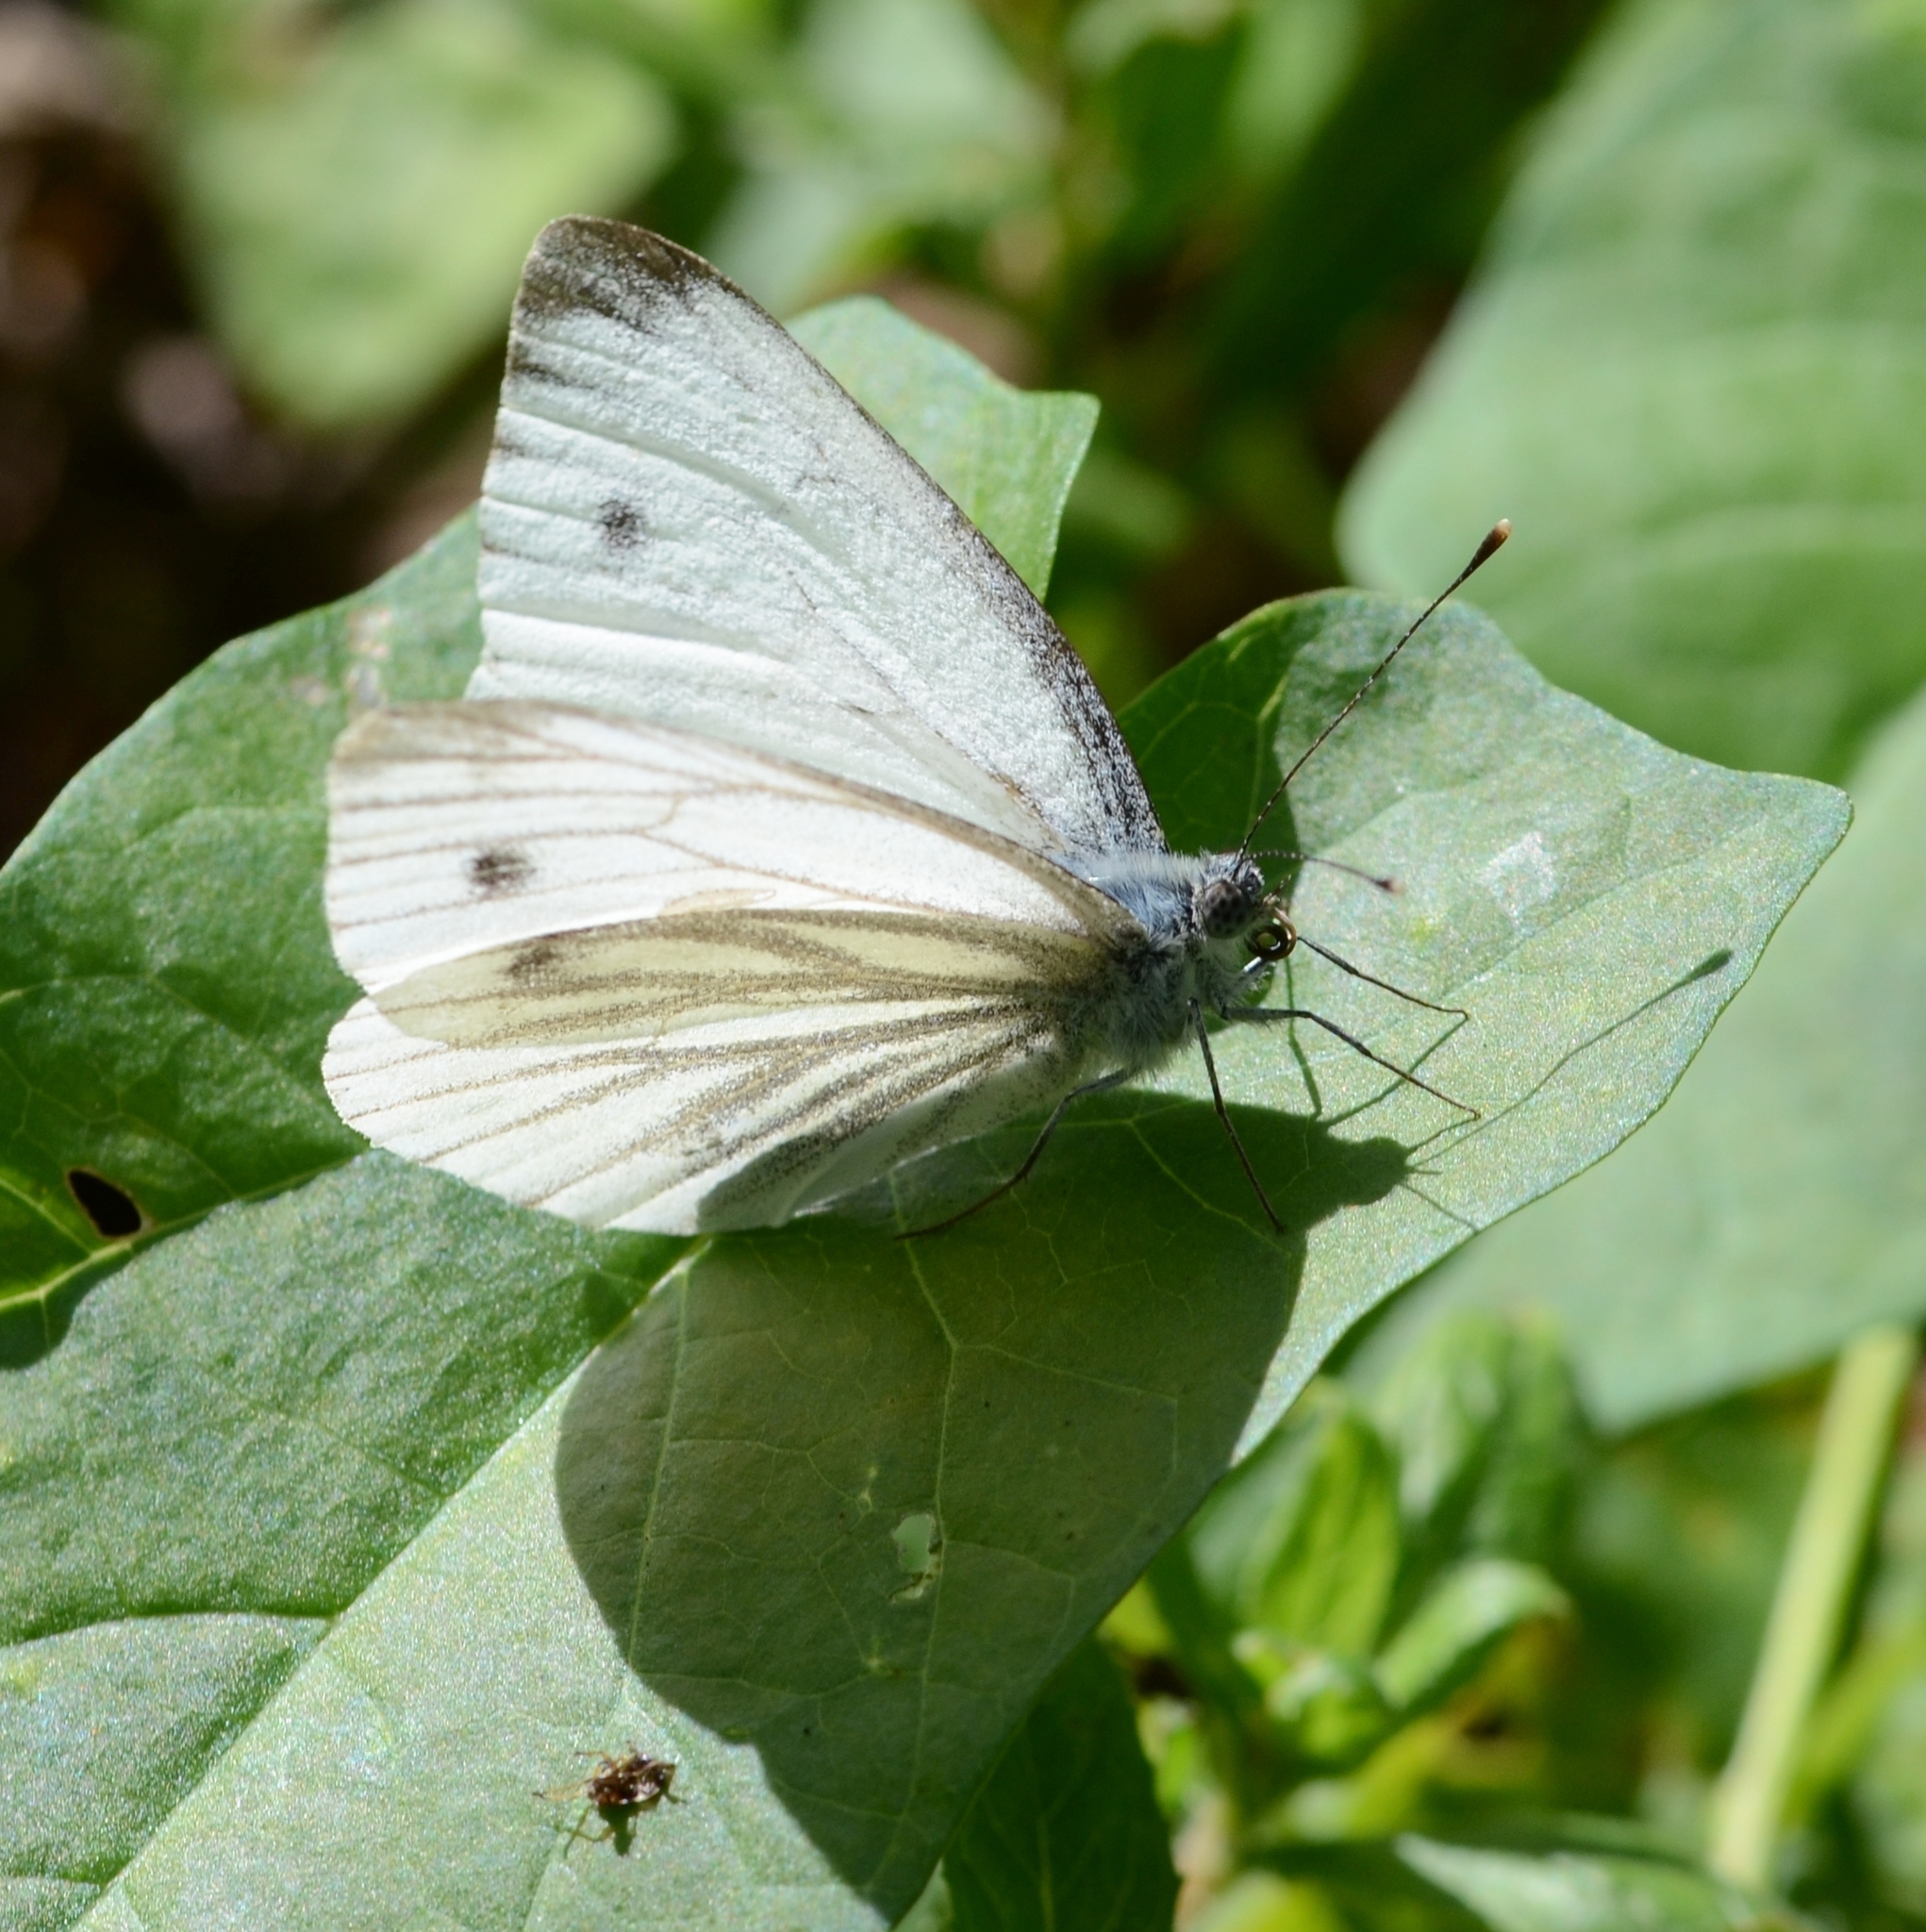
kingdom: Animalia
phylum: Arthropoda
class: Insecta
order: Lepidoptera
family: Pieridae
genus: Pieris
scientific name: Pieris napi
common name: Green-veined white
